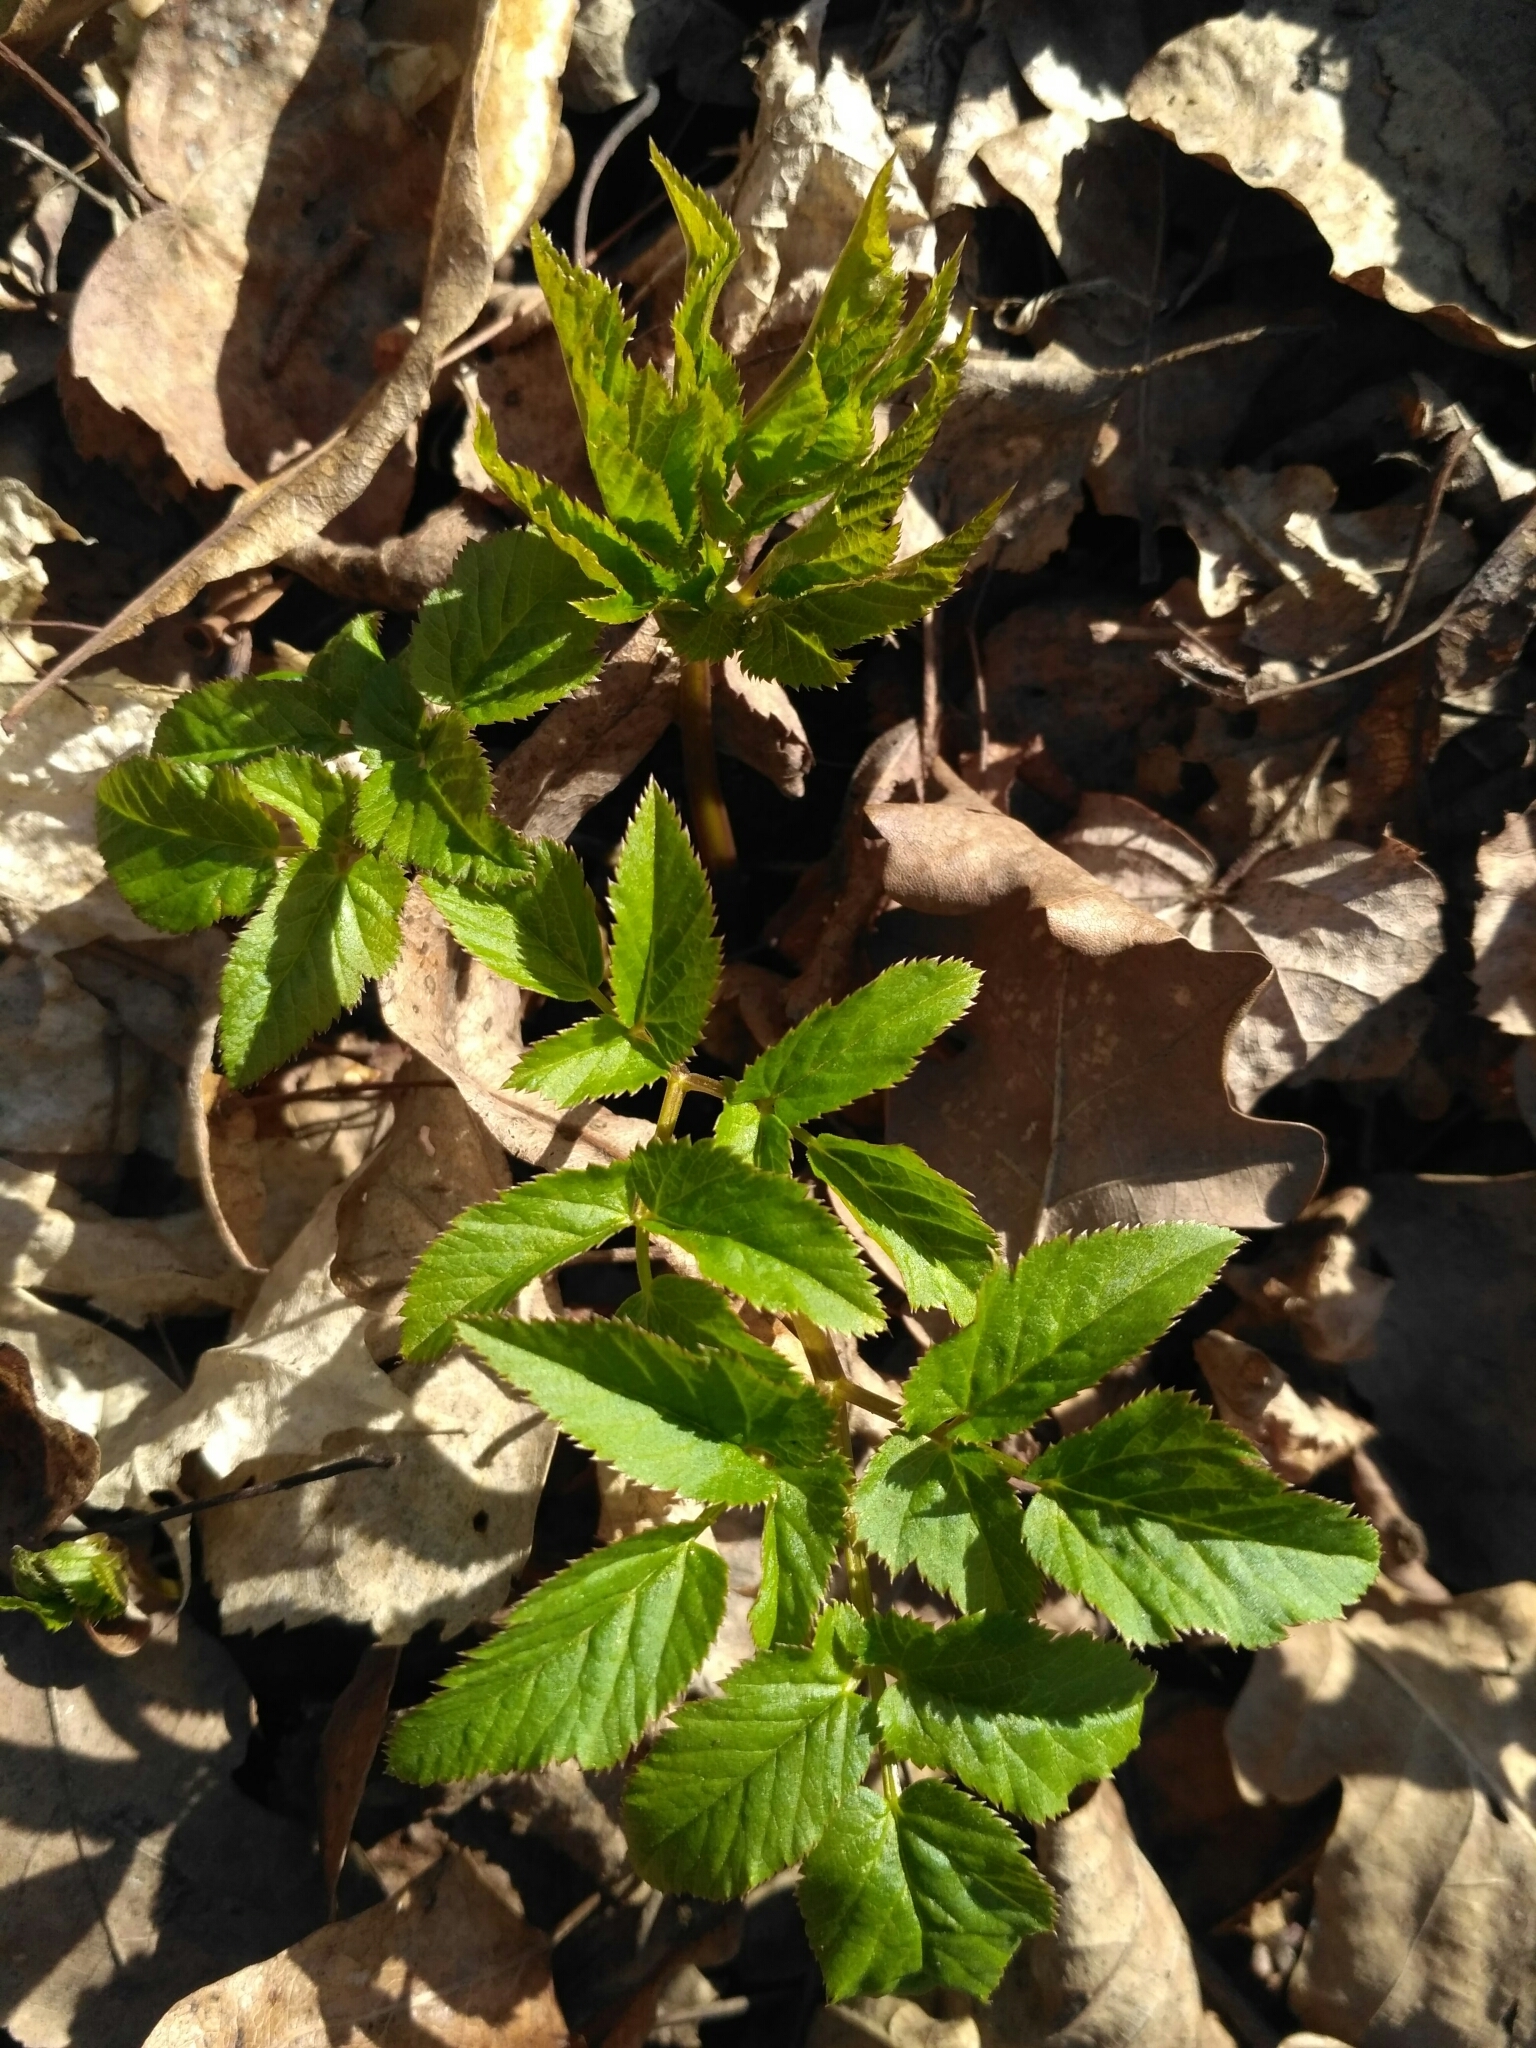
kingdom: Plantae
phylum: Tracheophyta
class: Magnoliopsida
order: Apiales
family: Apiaceae
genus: Aegopodium
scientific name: Aegopodium podagraria
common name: Ground-elder
